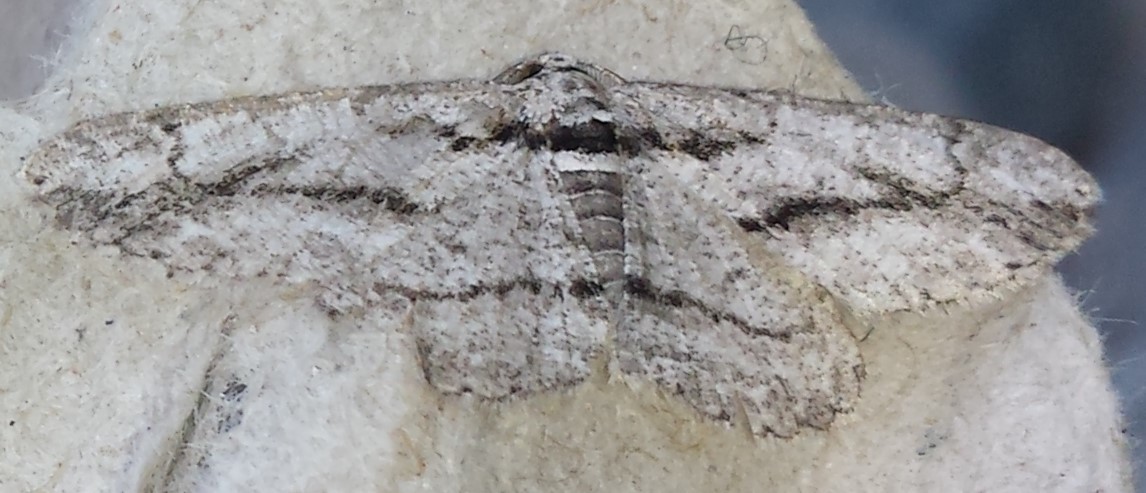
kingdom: Animalia
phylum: Arthropoda
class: Insecta
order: Lepidoptera
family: Geometridae
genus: Anavitrinella
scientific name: Anavitrinella pampinaria
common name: Common gray
